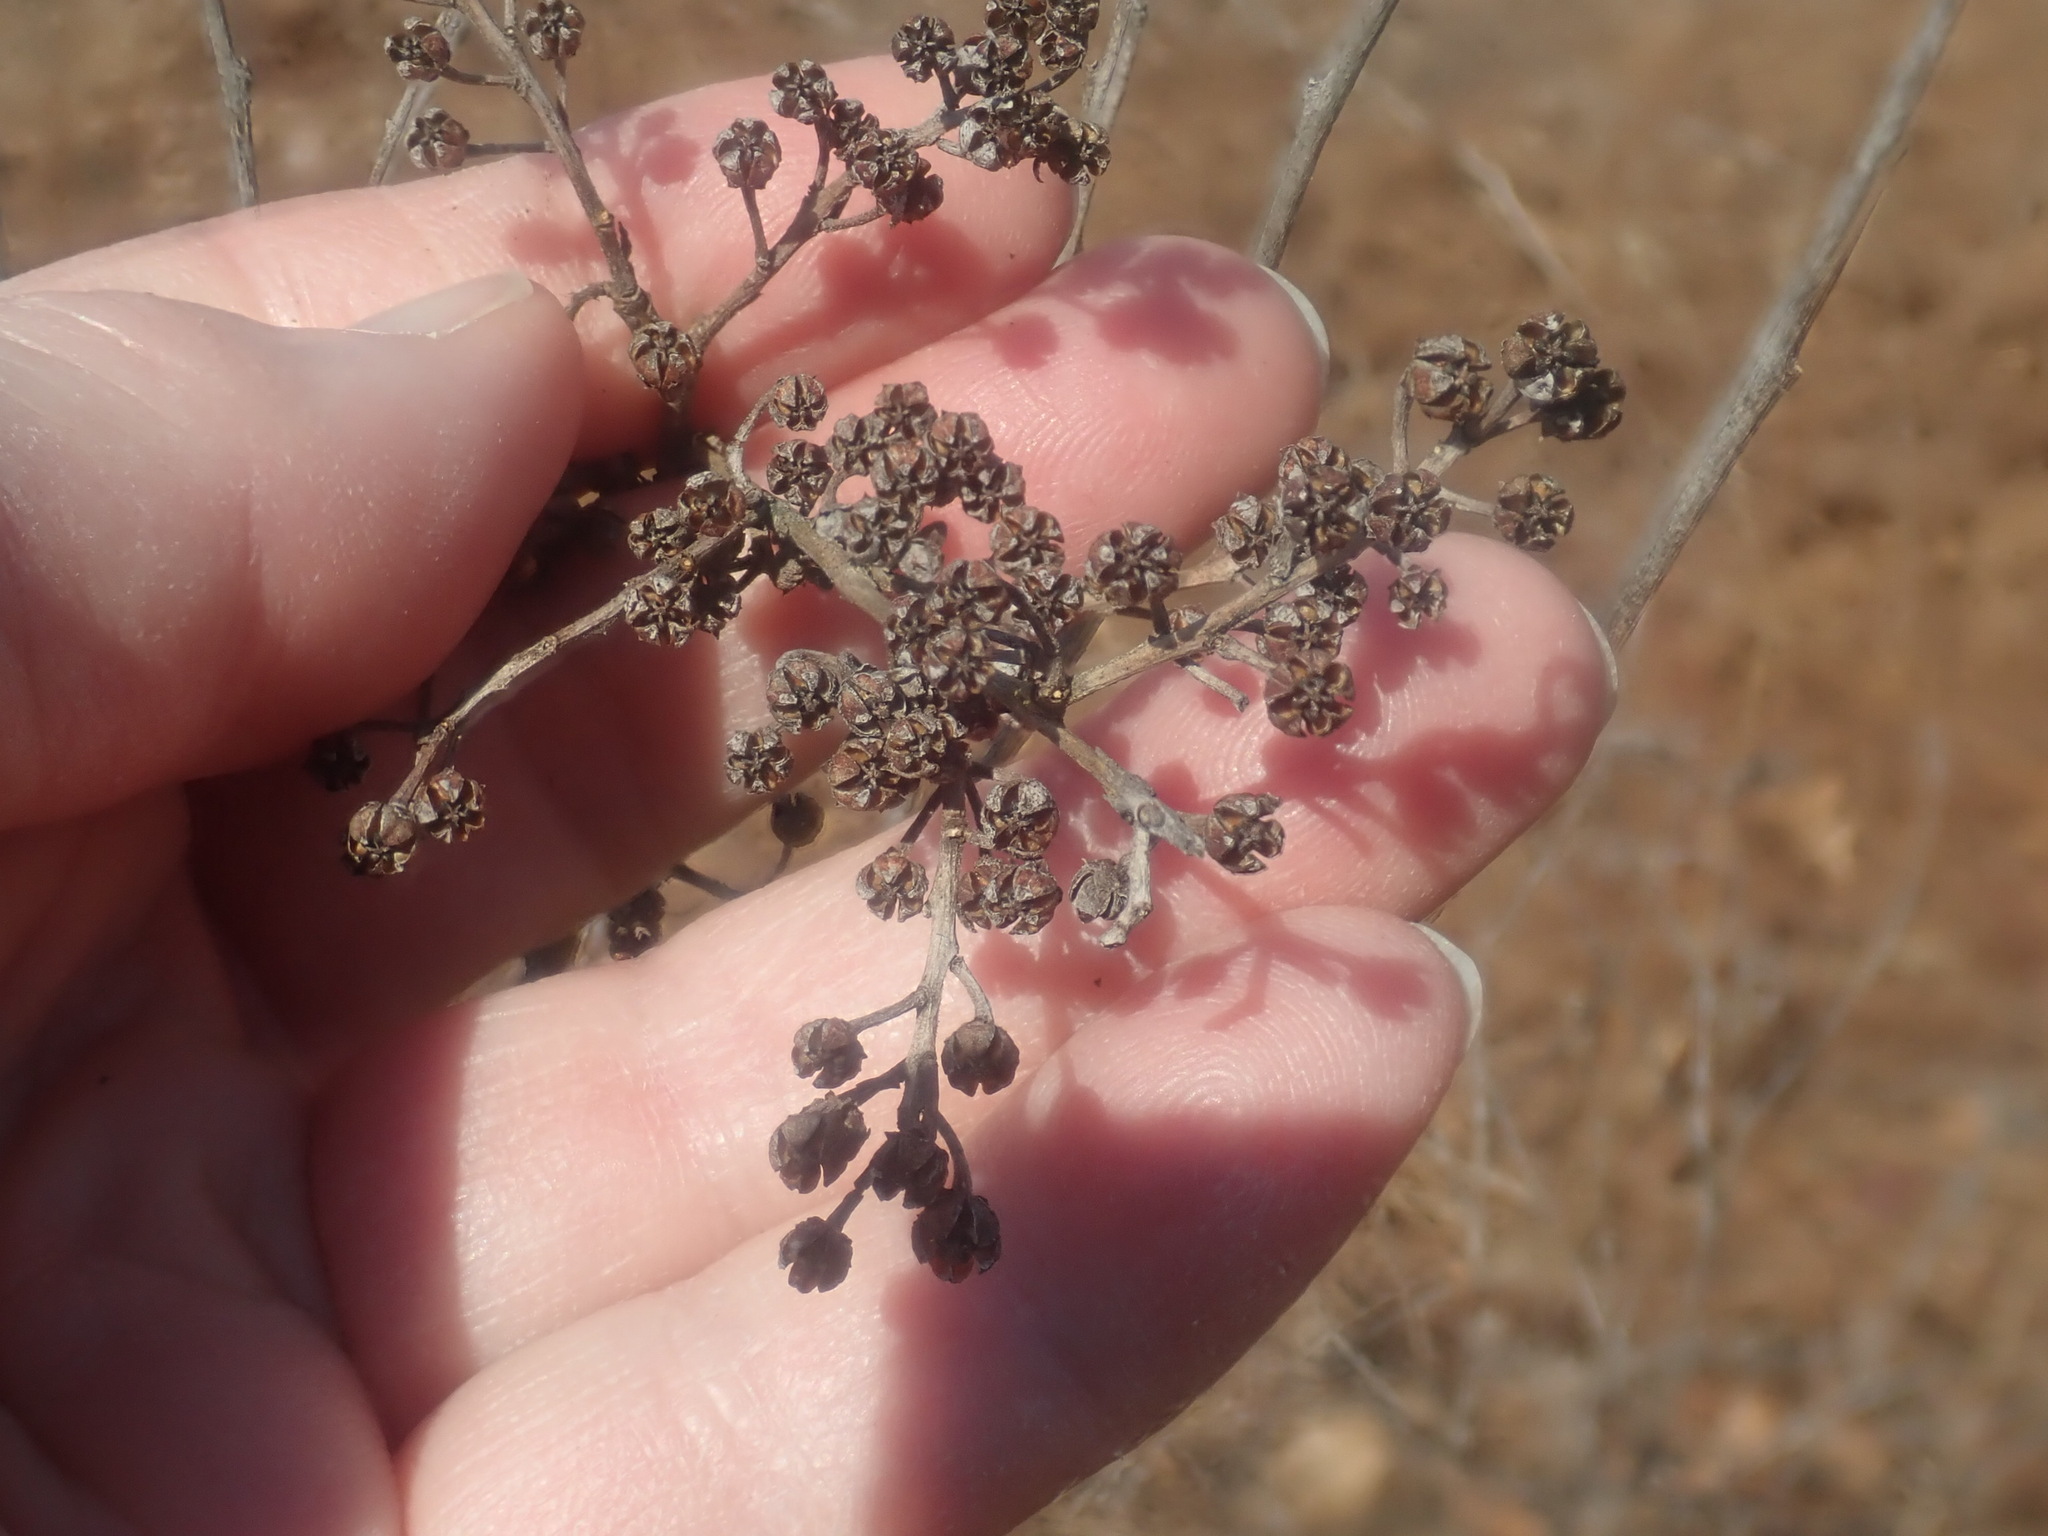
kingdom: Plantae
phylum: Tracheophyta
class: Magnoliopsida
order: Ericales
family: Ericaceae
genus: Lyonia
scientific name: Lyonia ligustrina
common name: Maleberry
